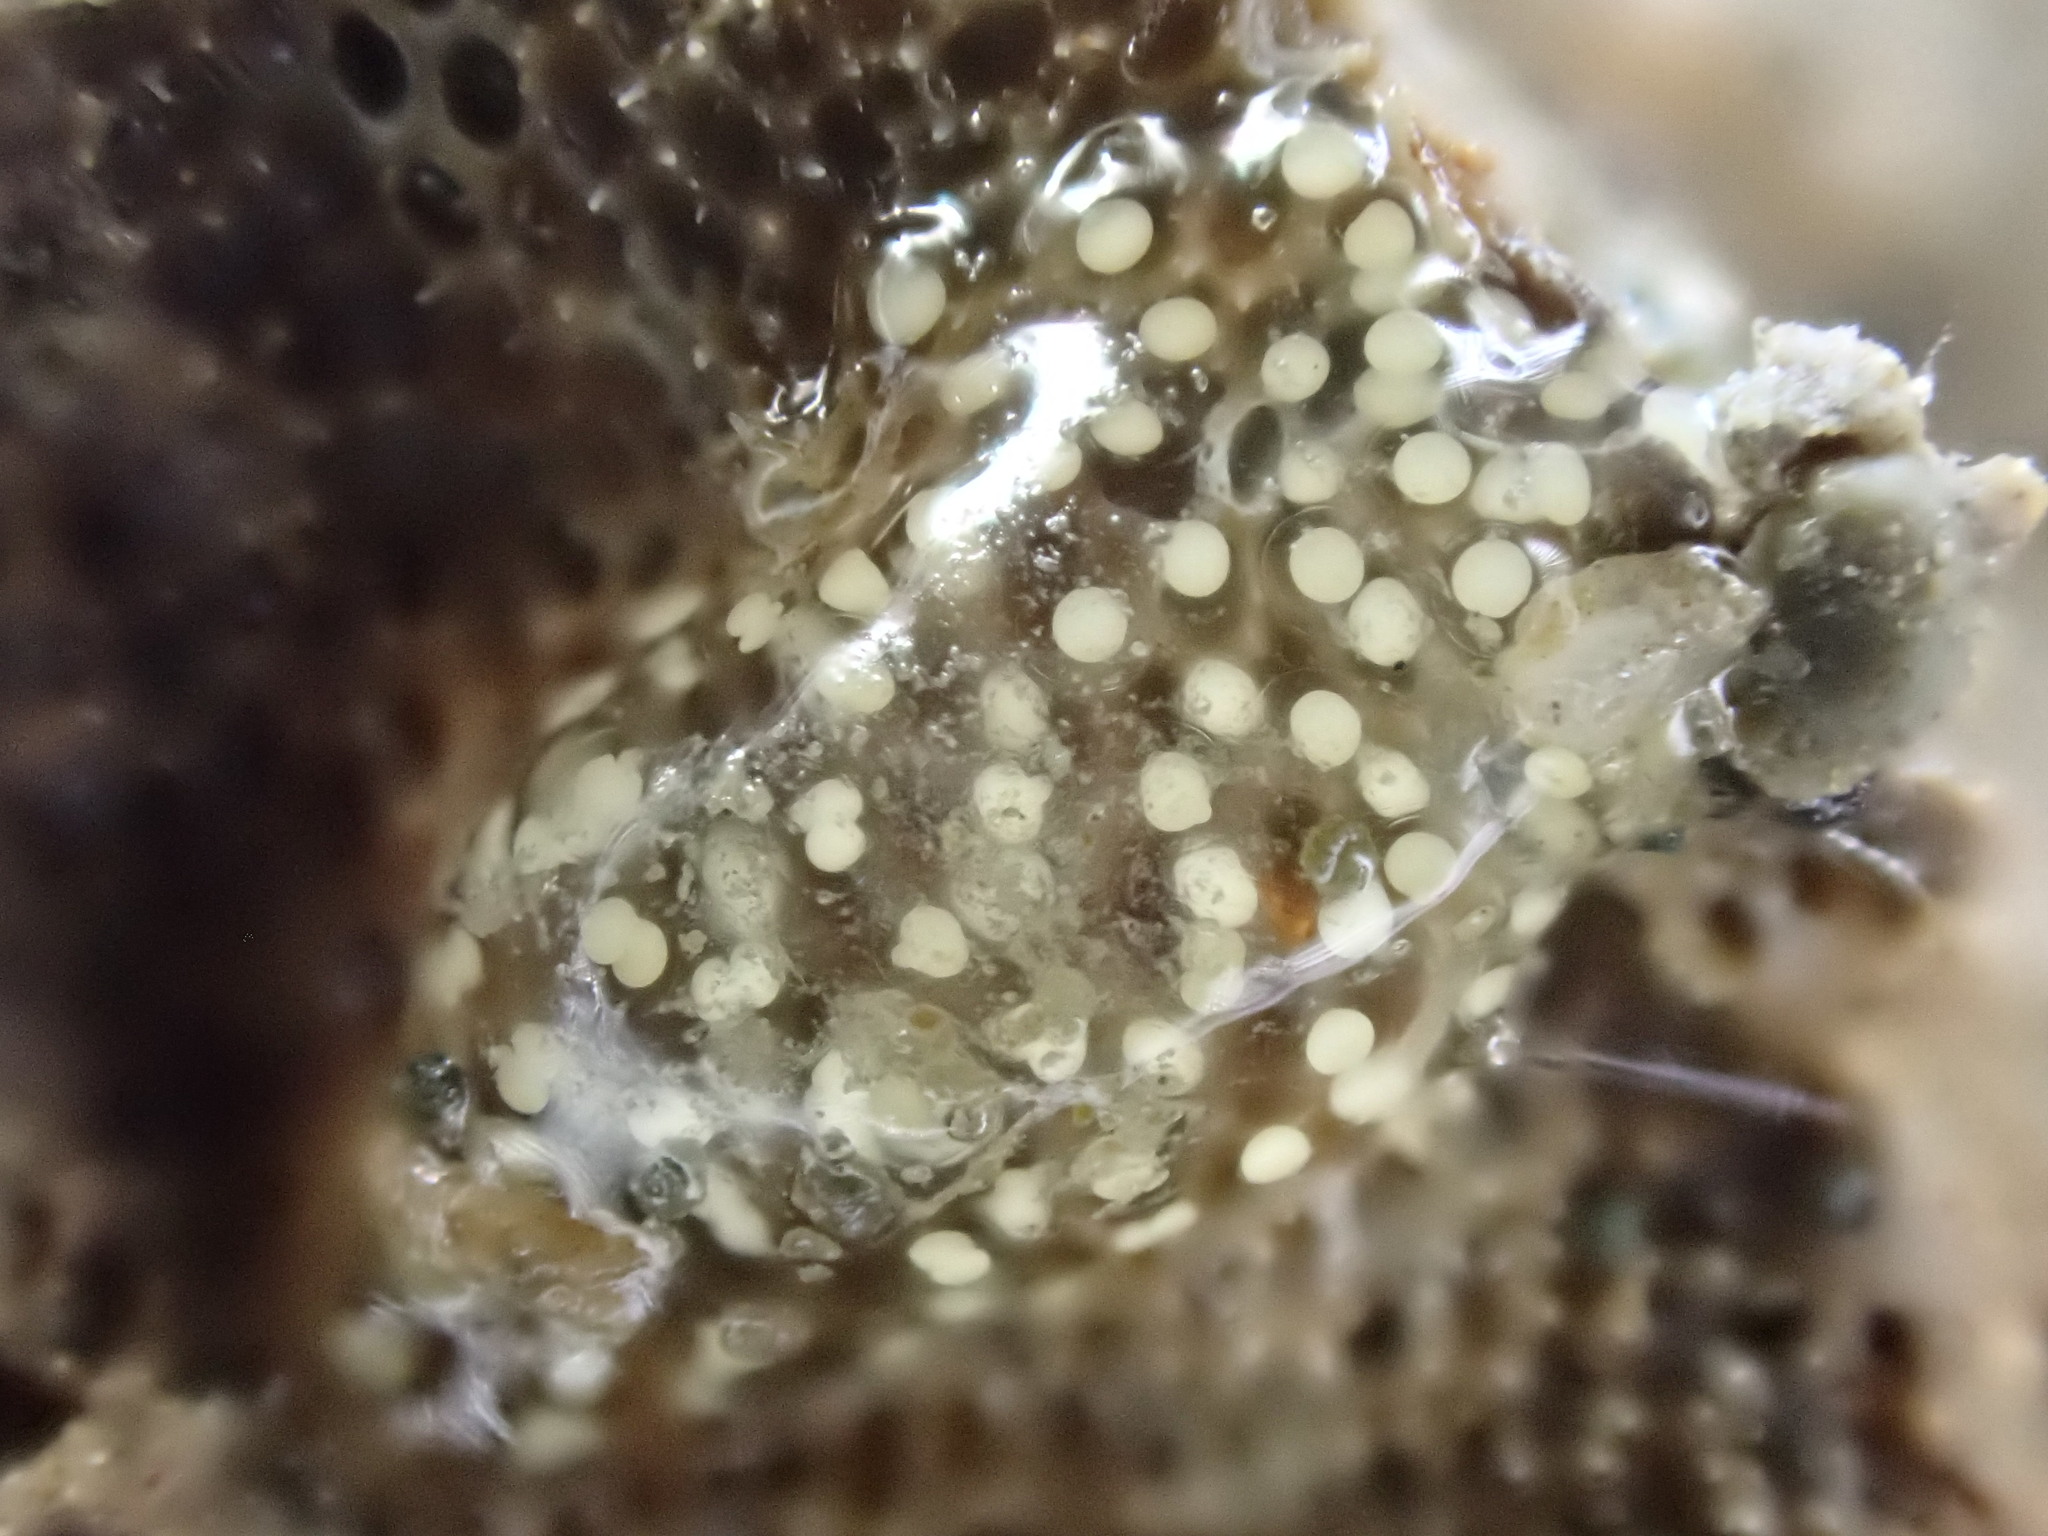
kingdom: Animalia
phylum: Mollusca
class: Gastropoda
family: Batillariidae
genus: Zeacumantus
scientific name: Zeacumantus subcarinatus
